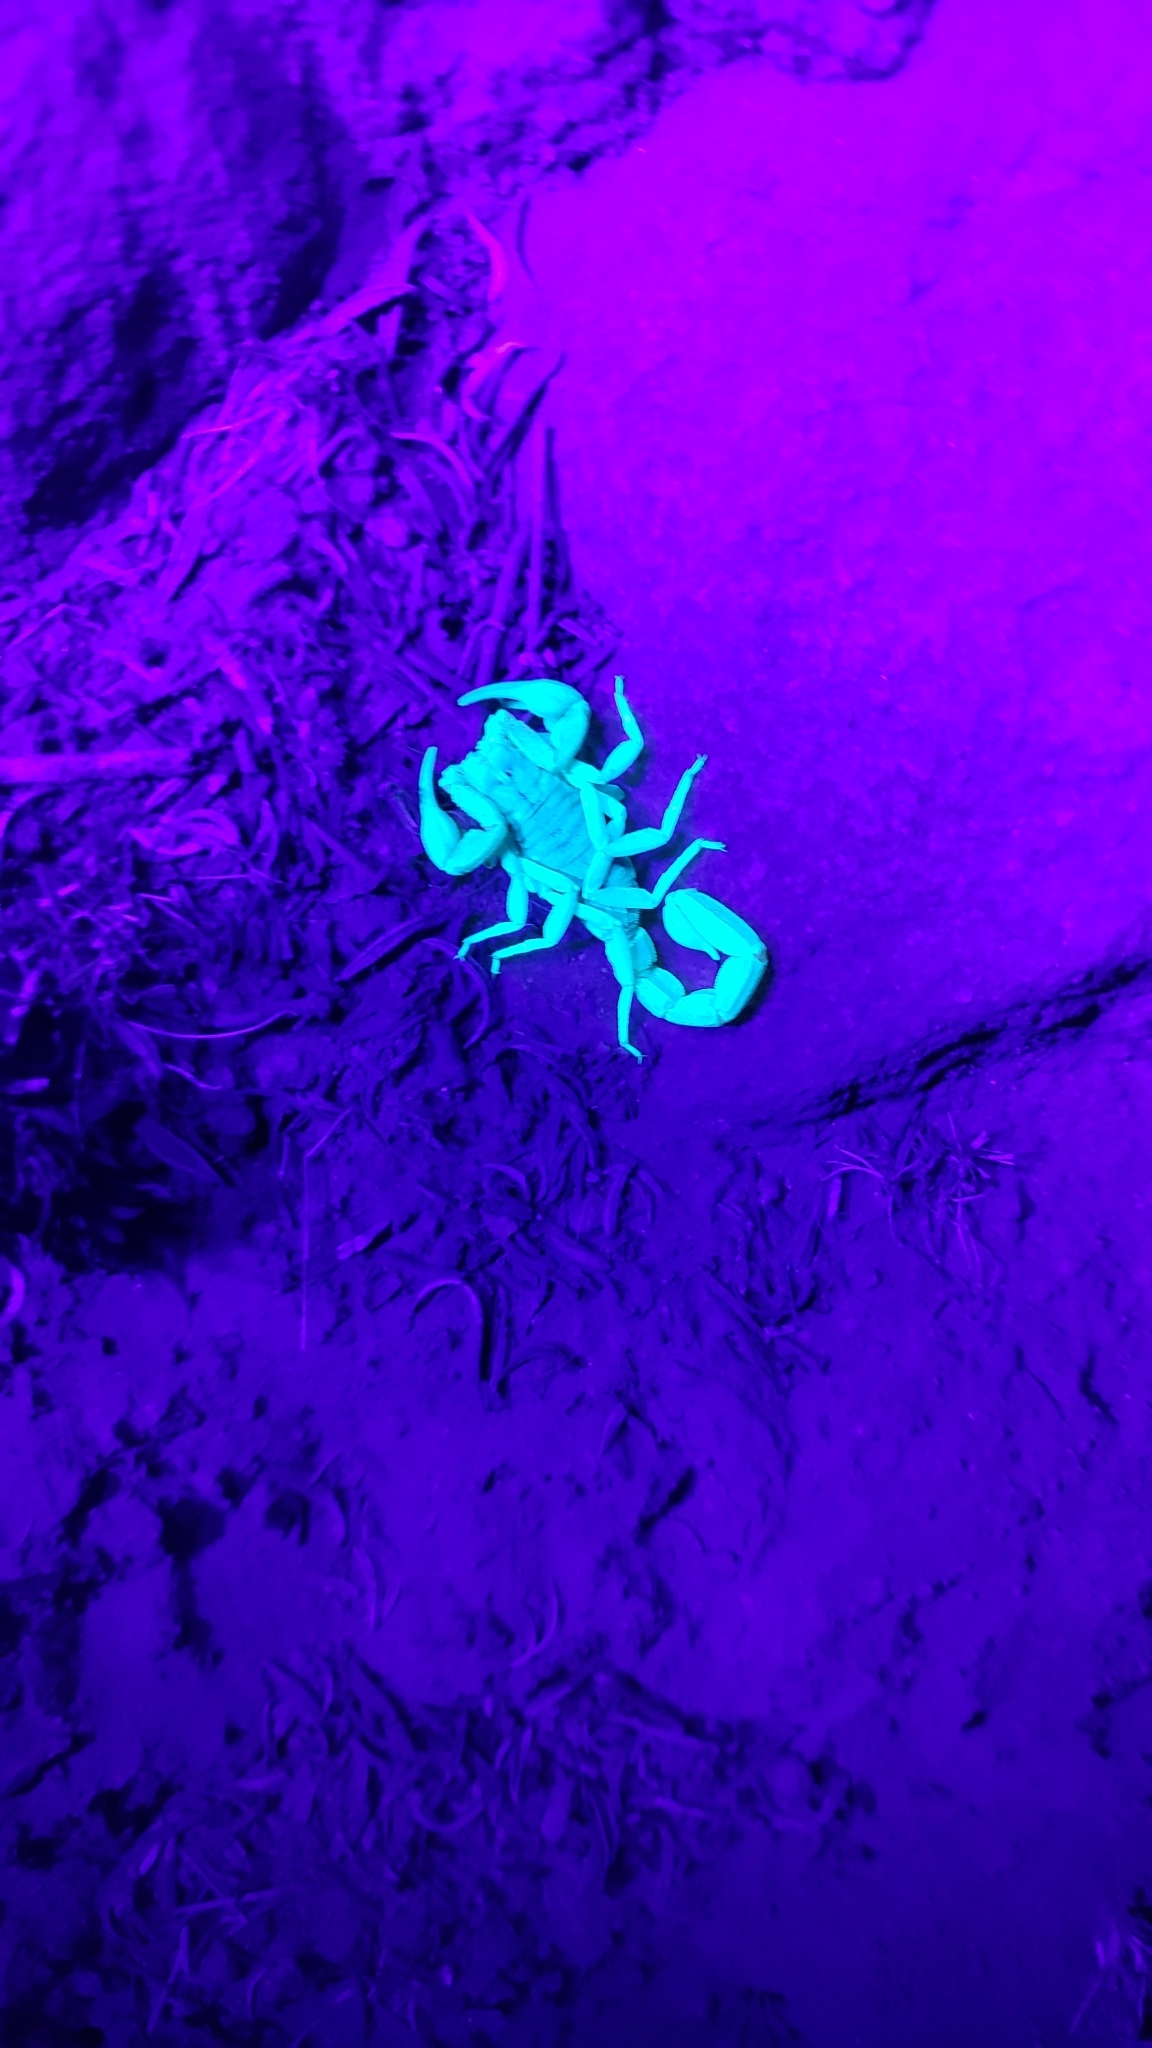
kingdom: Animalia
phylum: Arthropoda
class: Arachnida
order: Scorpiones
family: Vaejovidae
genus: Paruroctonus
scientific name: Paruroctonus silvestrii
